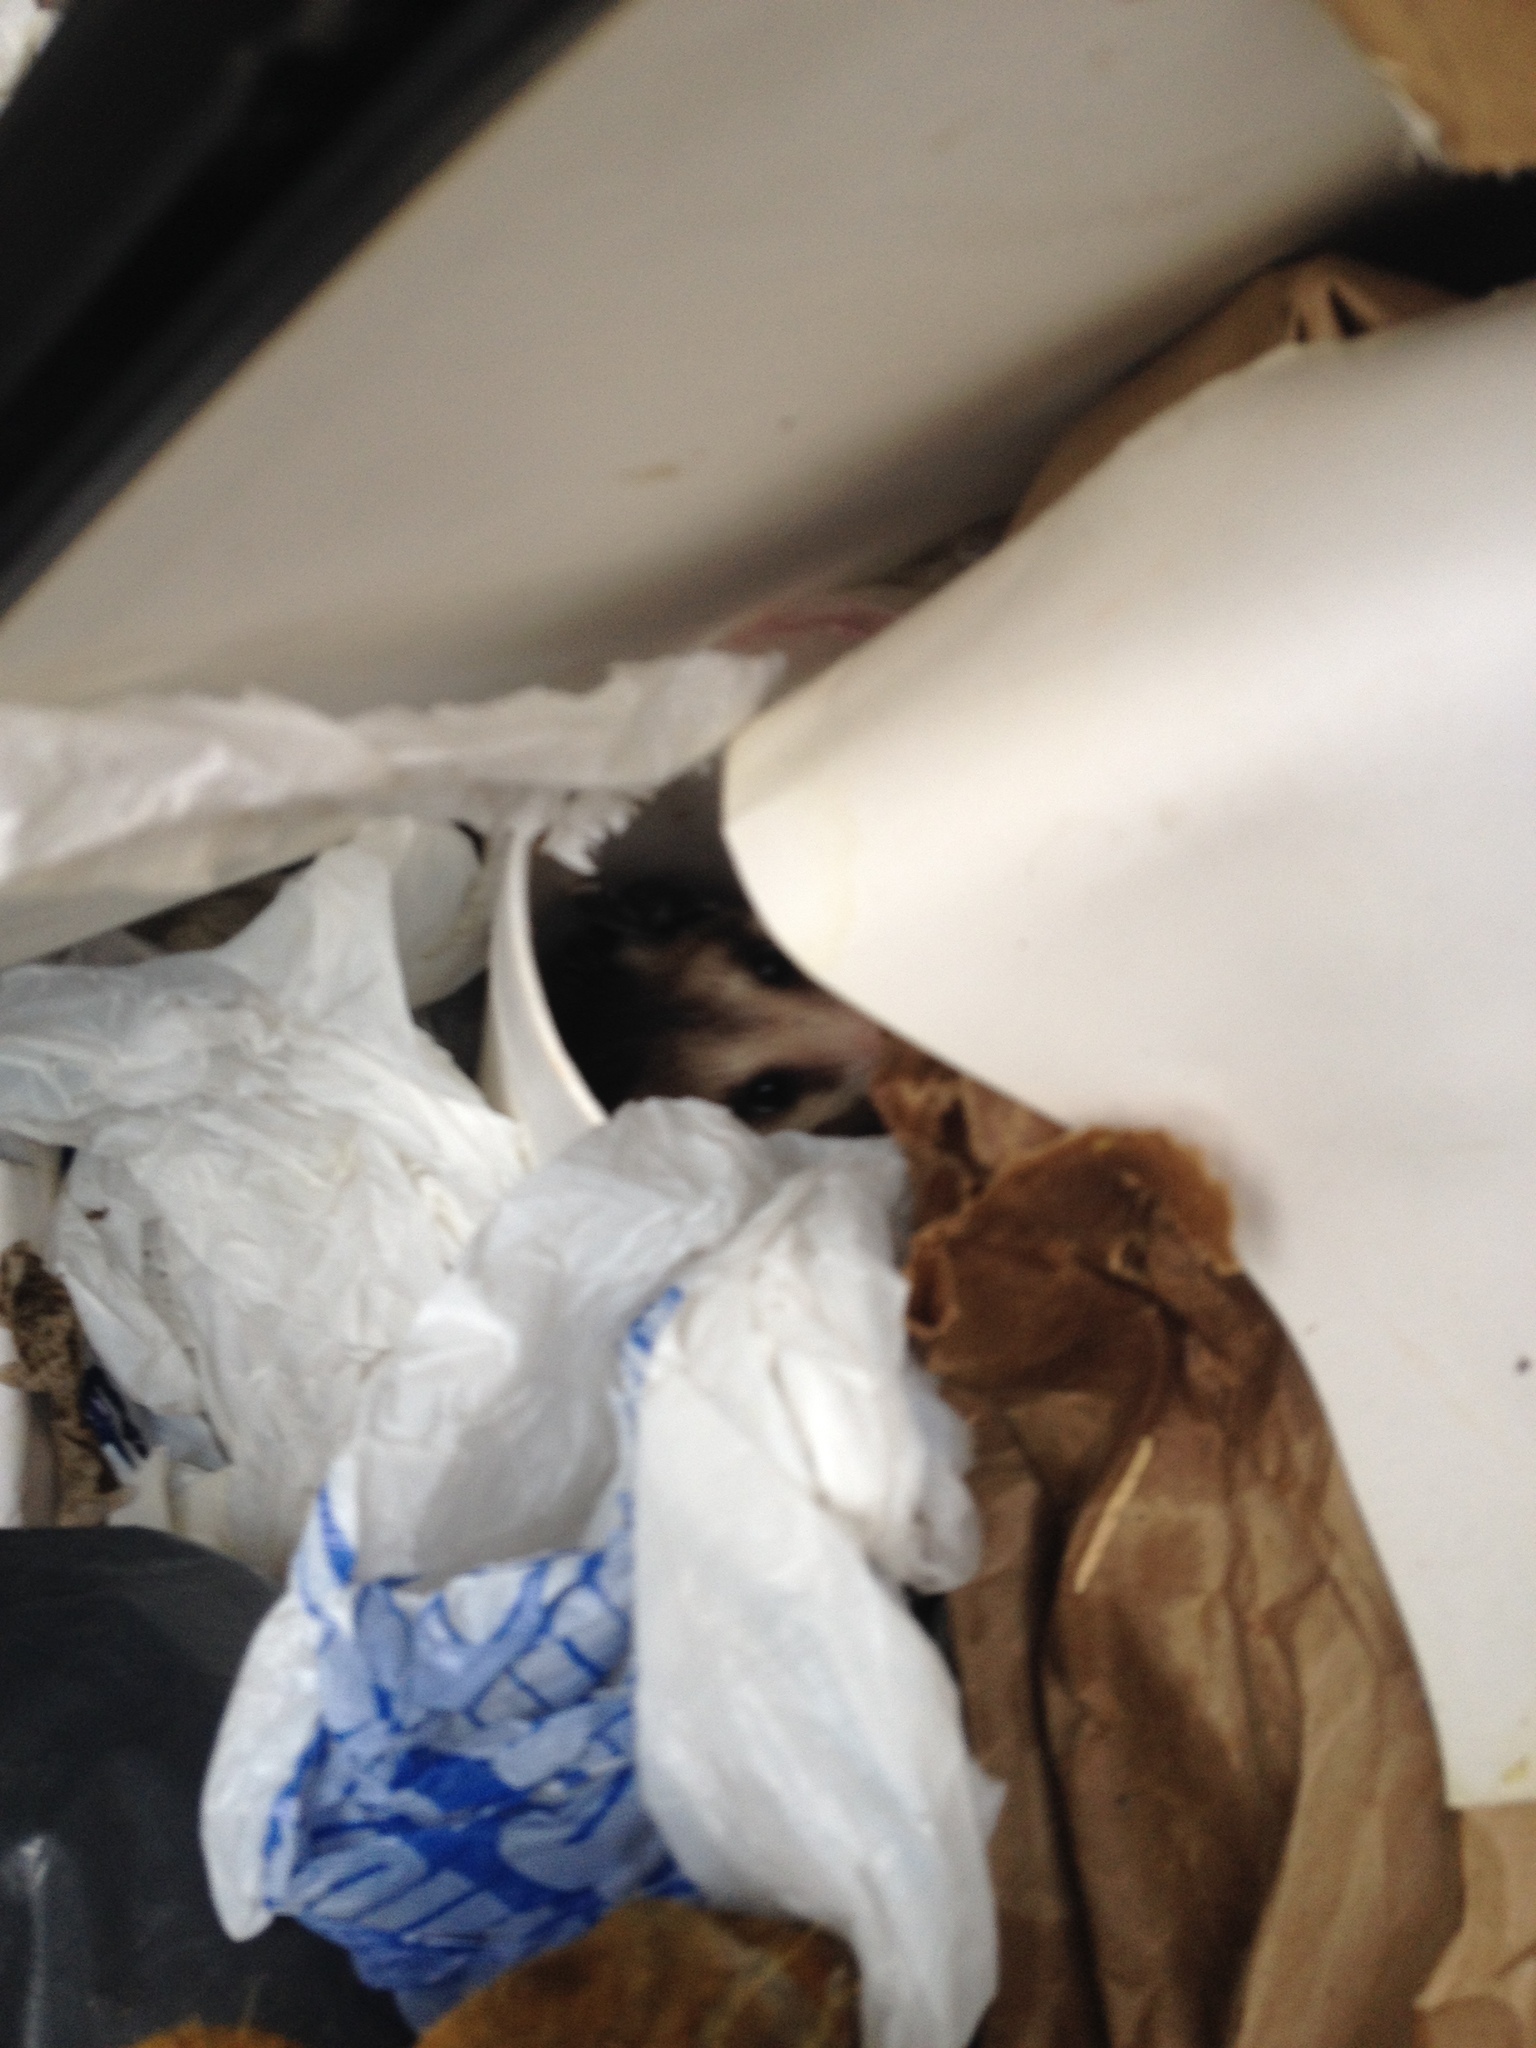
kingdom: Animalia
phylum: Chordata
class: Mammalia
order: Didelphimorphia
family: Didelphidae
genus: Didelphis
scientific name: Didelphis virginiana
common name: Virginia opossum
